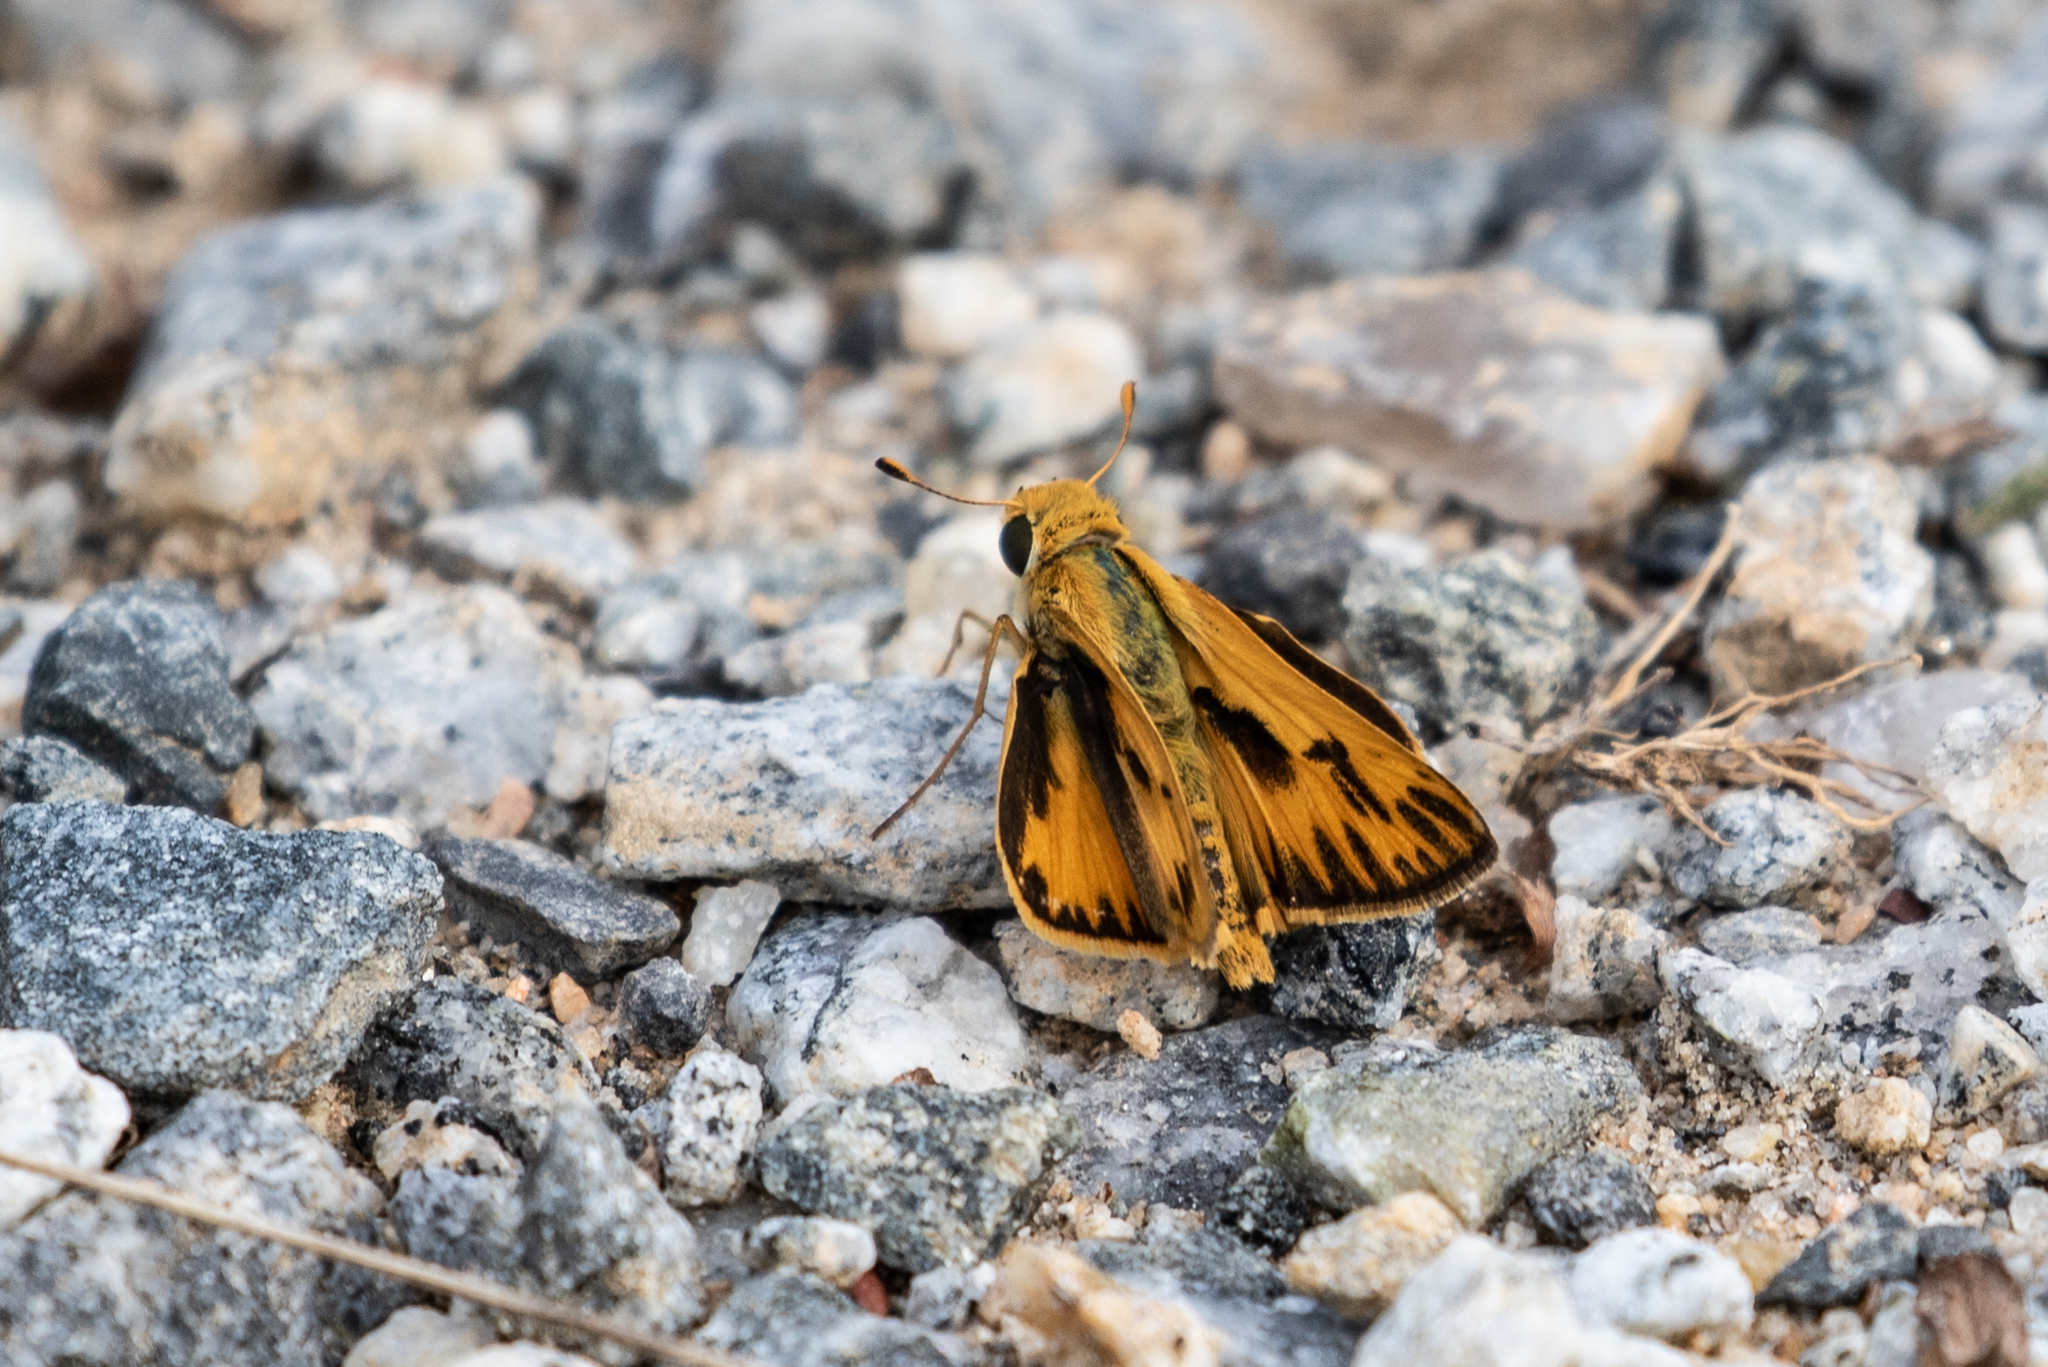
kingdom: Animalia
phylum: Arthropoda
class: Insecta
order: Lepidoptera
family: Hesperiidae
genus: Hylephila
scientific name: Hylephila phyleus
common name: Fiery skipper
